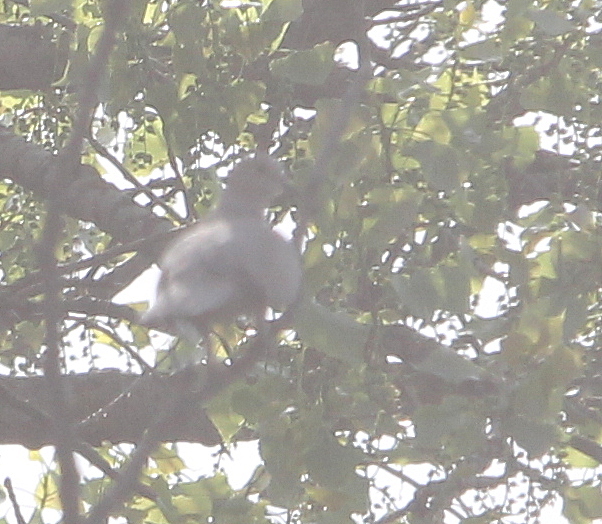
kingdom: Animalia
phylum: Chordata
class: Aves
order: Columbiformes
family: Columbidae
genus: Streptopelia
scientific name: Streptopelia decaocto
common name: Eurasian collared dove
